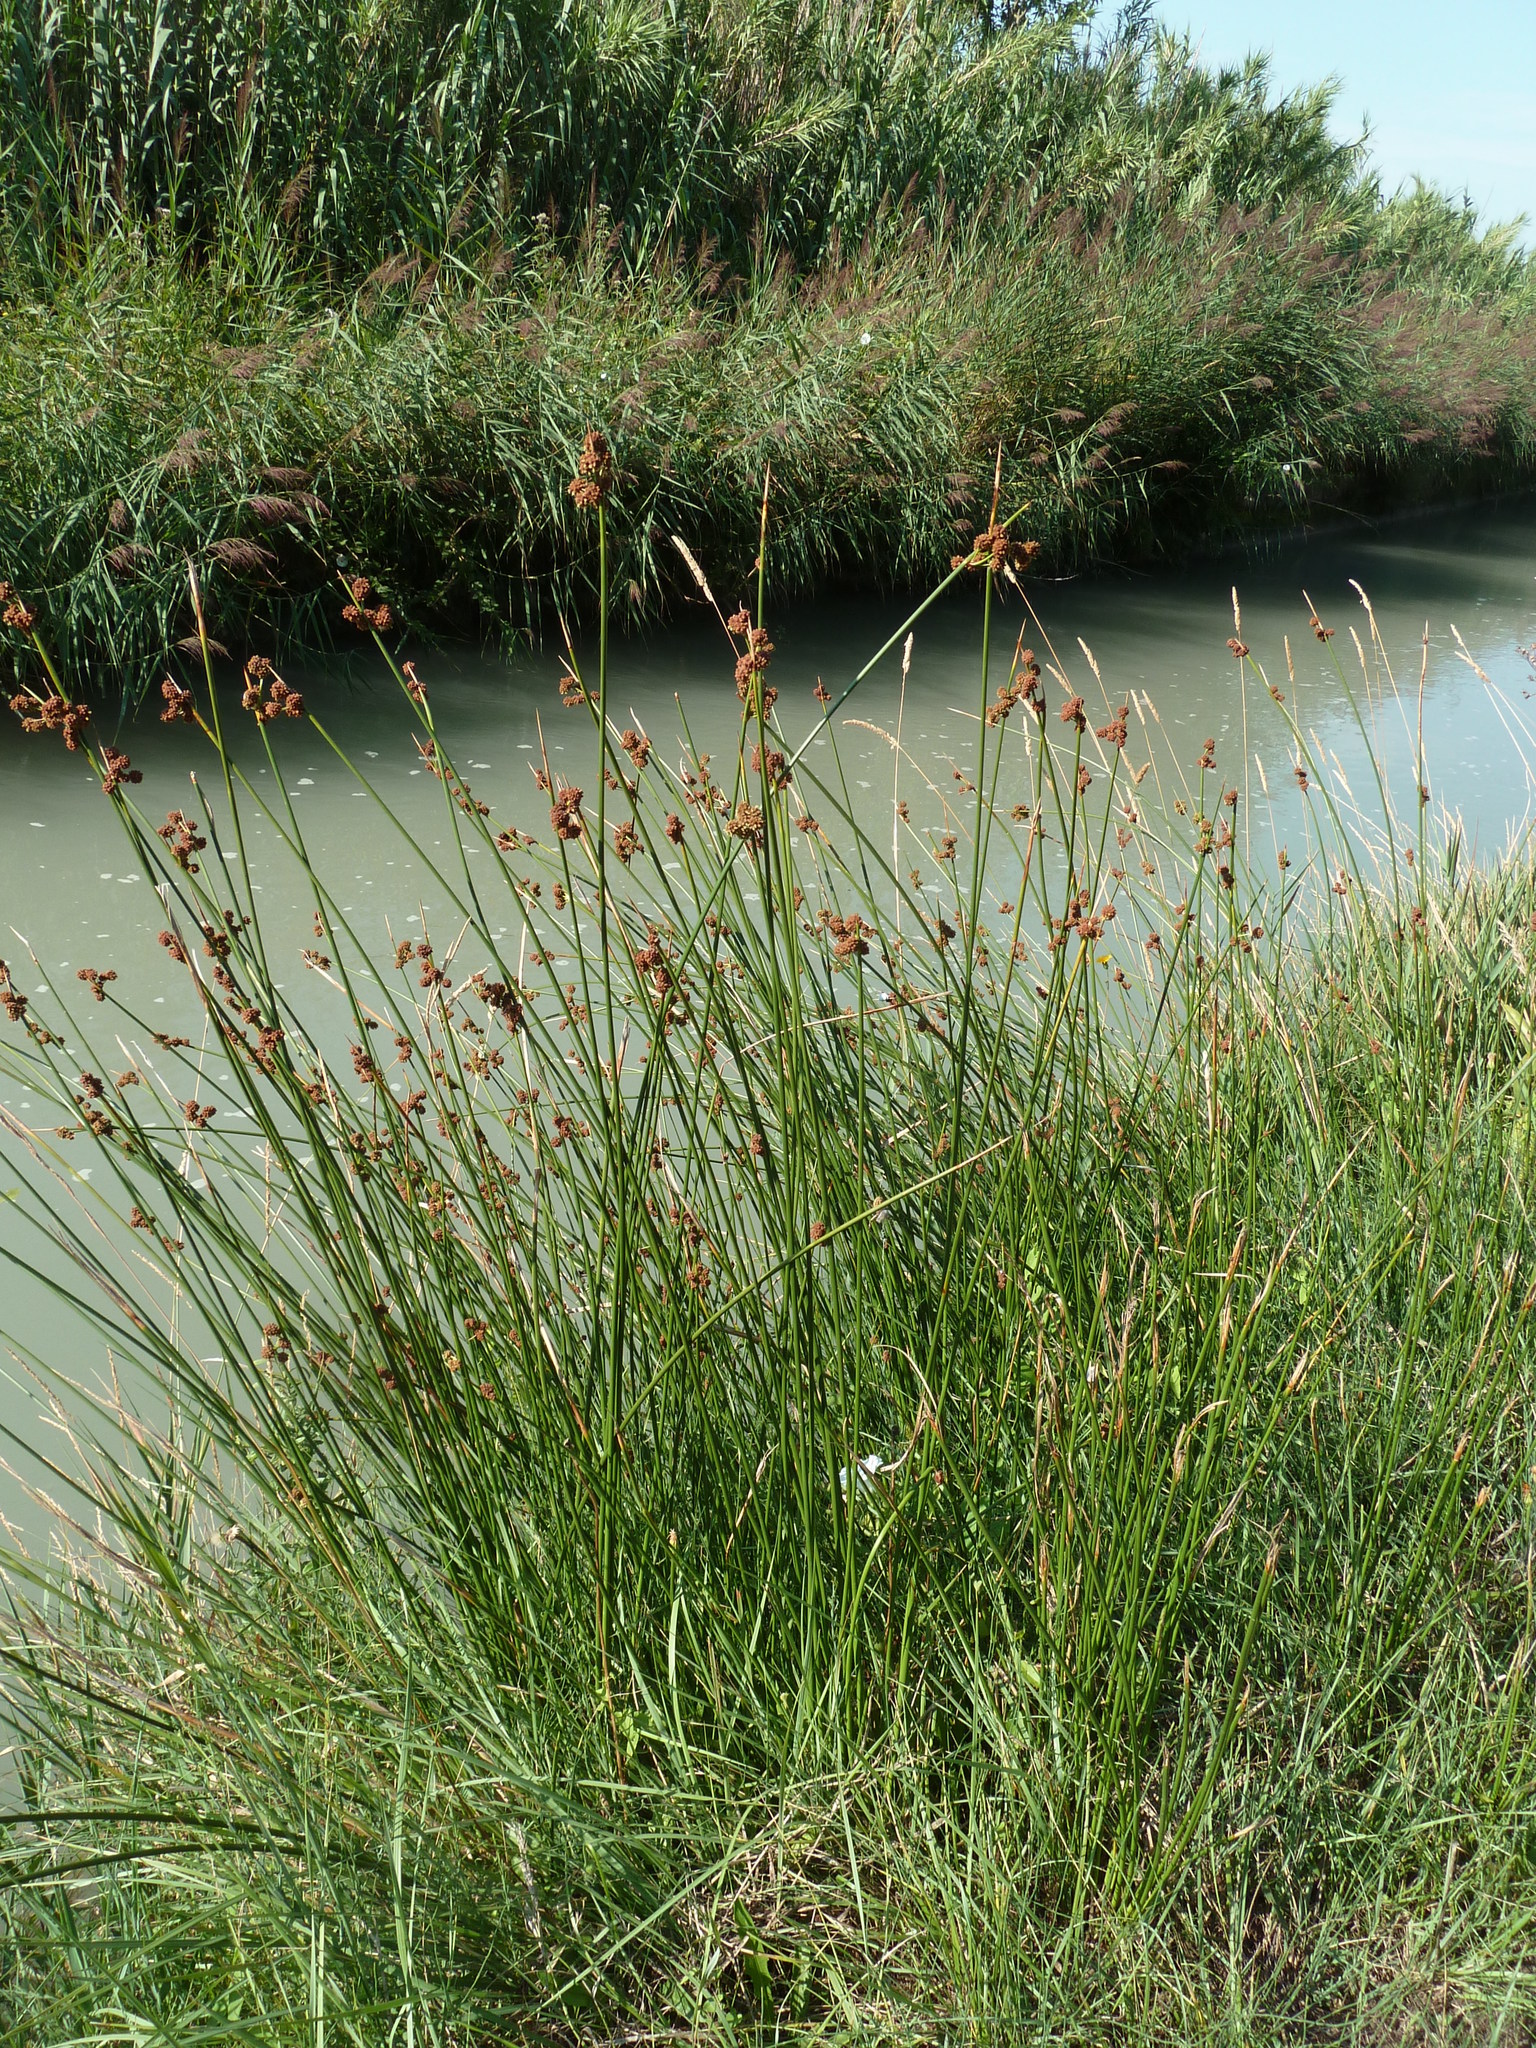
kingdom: Plantae
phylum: Tracheophyta
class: Liliopsida
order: Poales
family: Cyperaceae
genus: Scirpoides
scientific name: Scirpoides holoschoenus
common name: Round-headed club-rush
